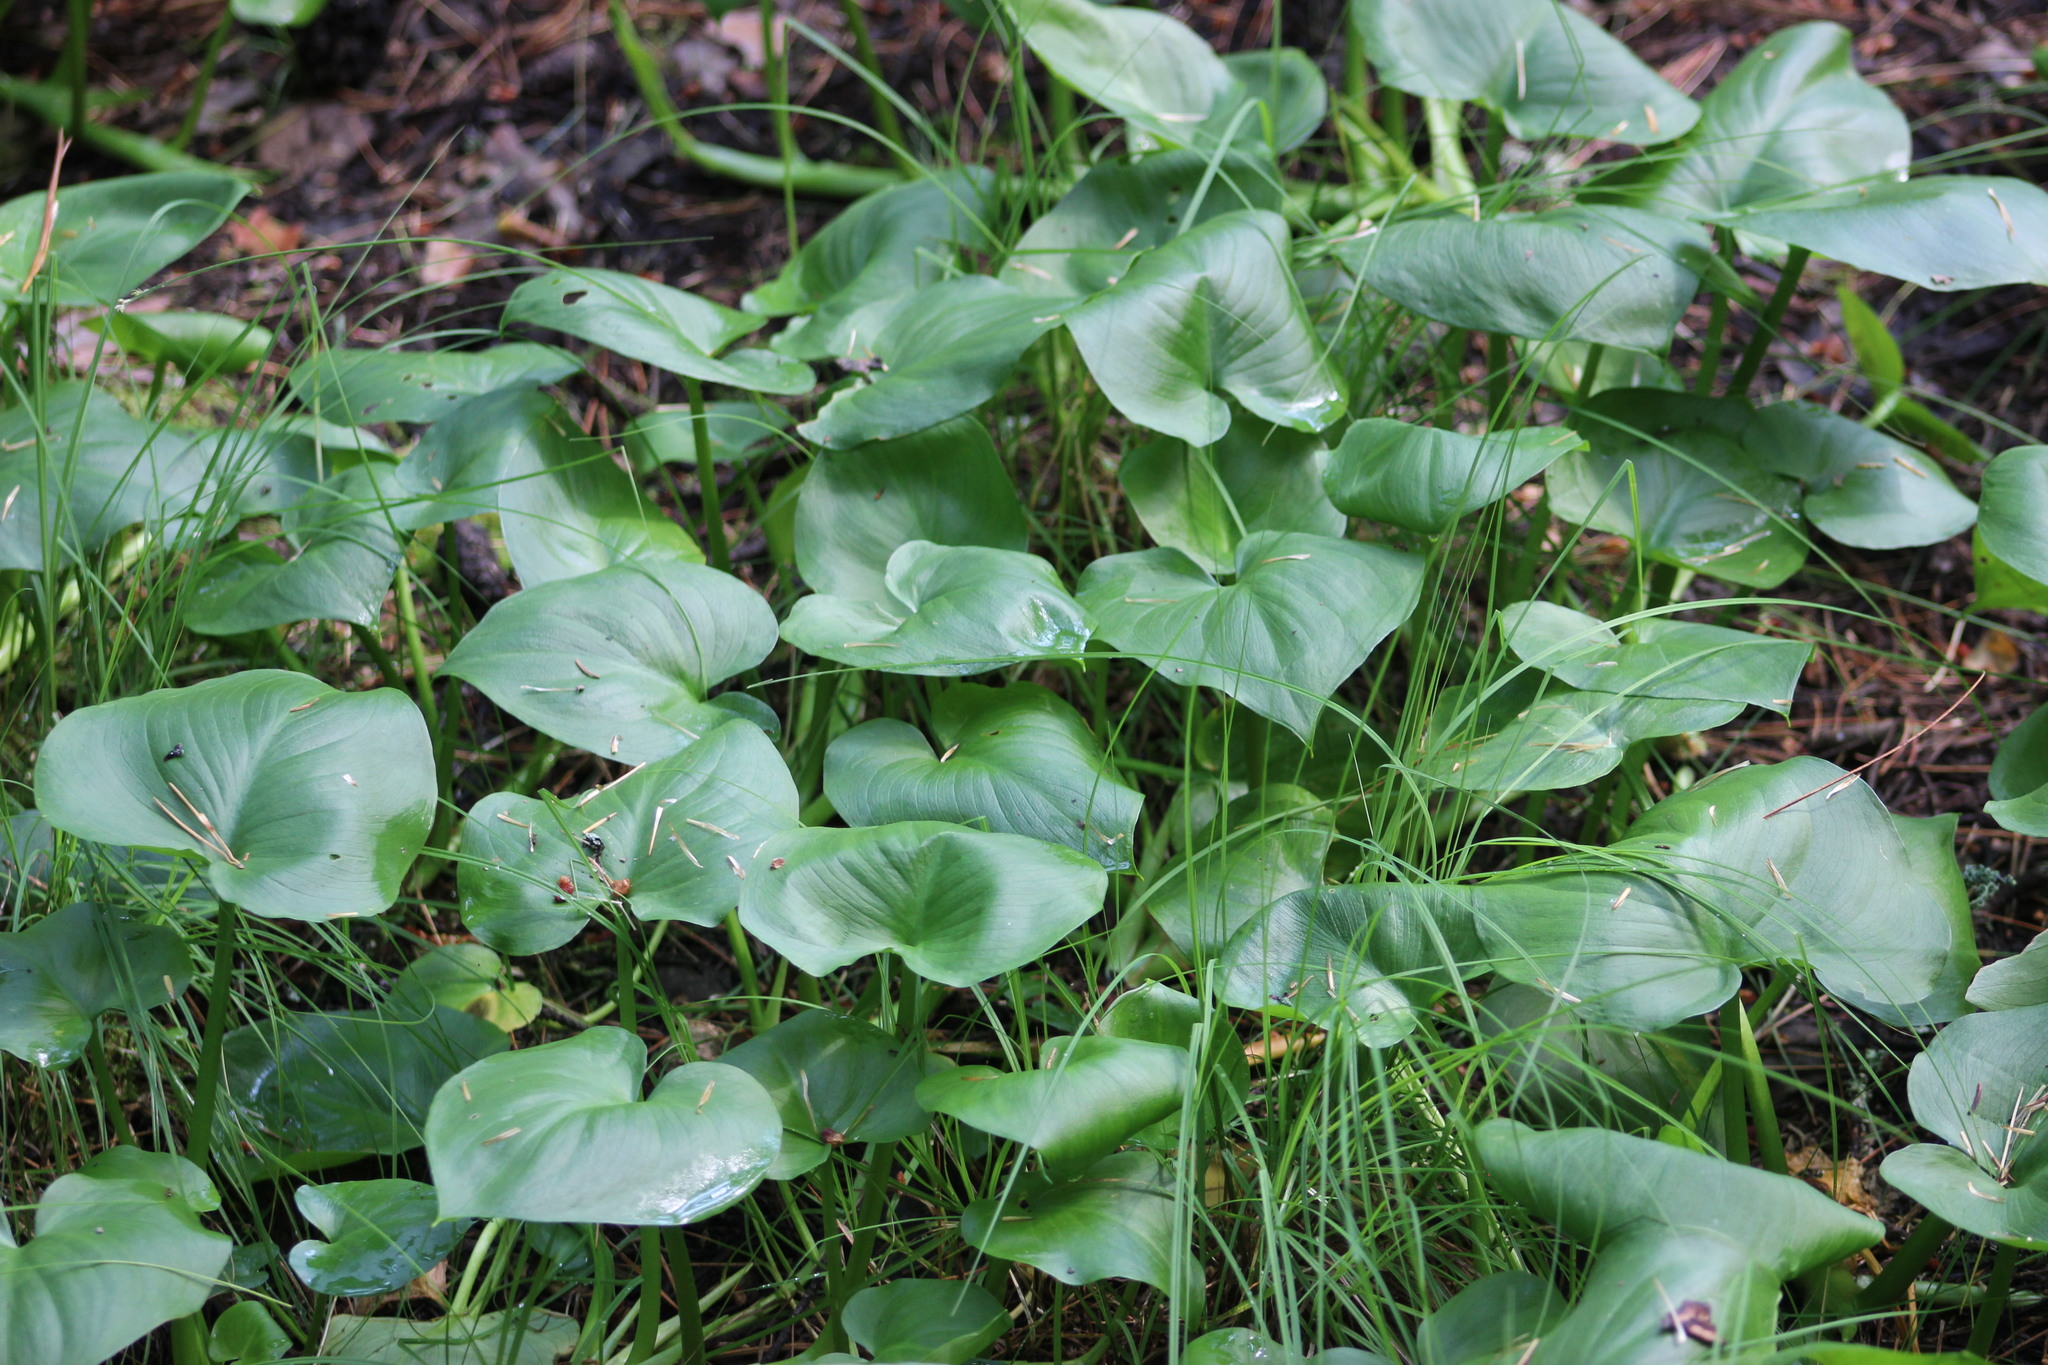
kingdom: Plantae
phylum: Tracheophyta
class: Liliopsida
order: Alismatales
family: Araceae
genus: Calla
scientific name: Calla palustris
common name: Bog arum
